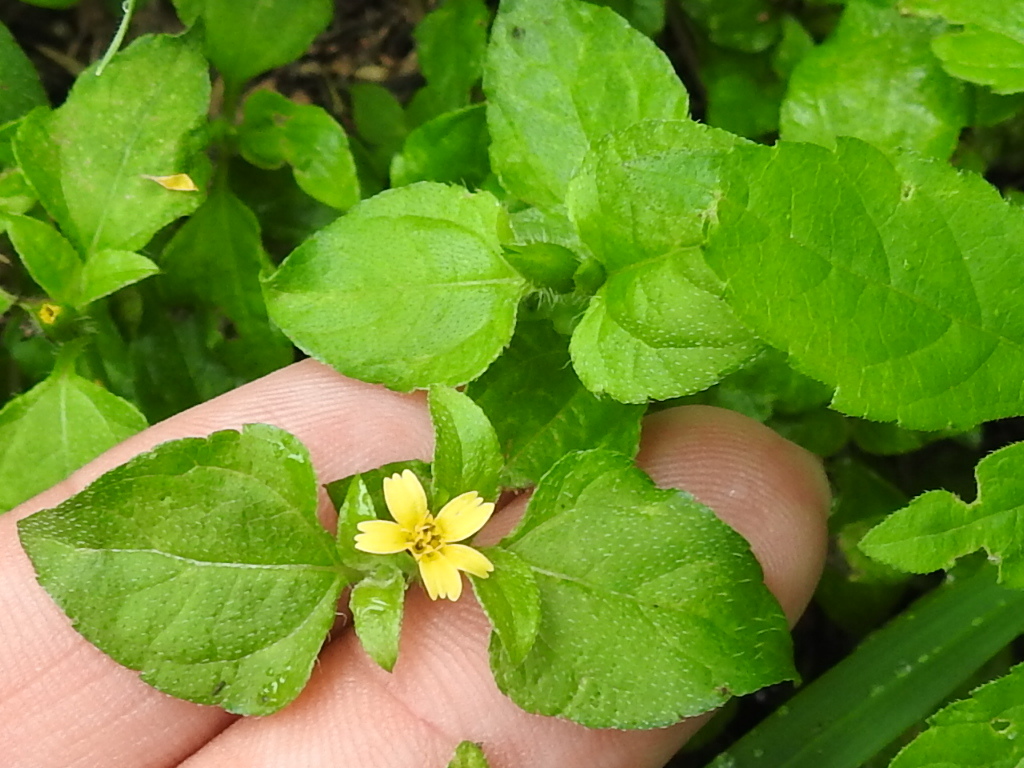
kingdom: Plantae
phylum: Tracheophyta
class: Magnoliopsida
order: Asterales
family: Asteraceae
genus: Calyptocarpus
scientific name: Calyptocarpus vialis
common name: Straggler daisy
